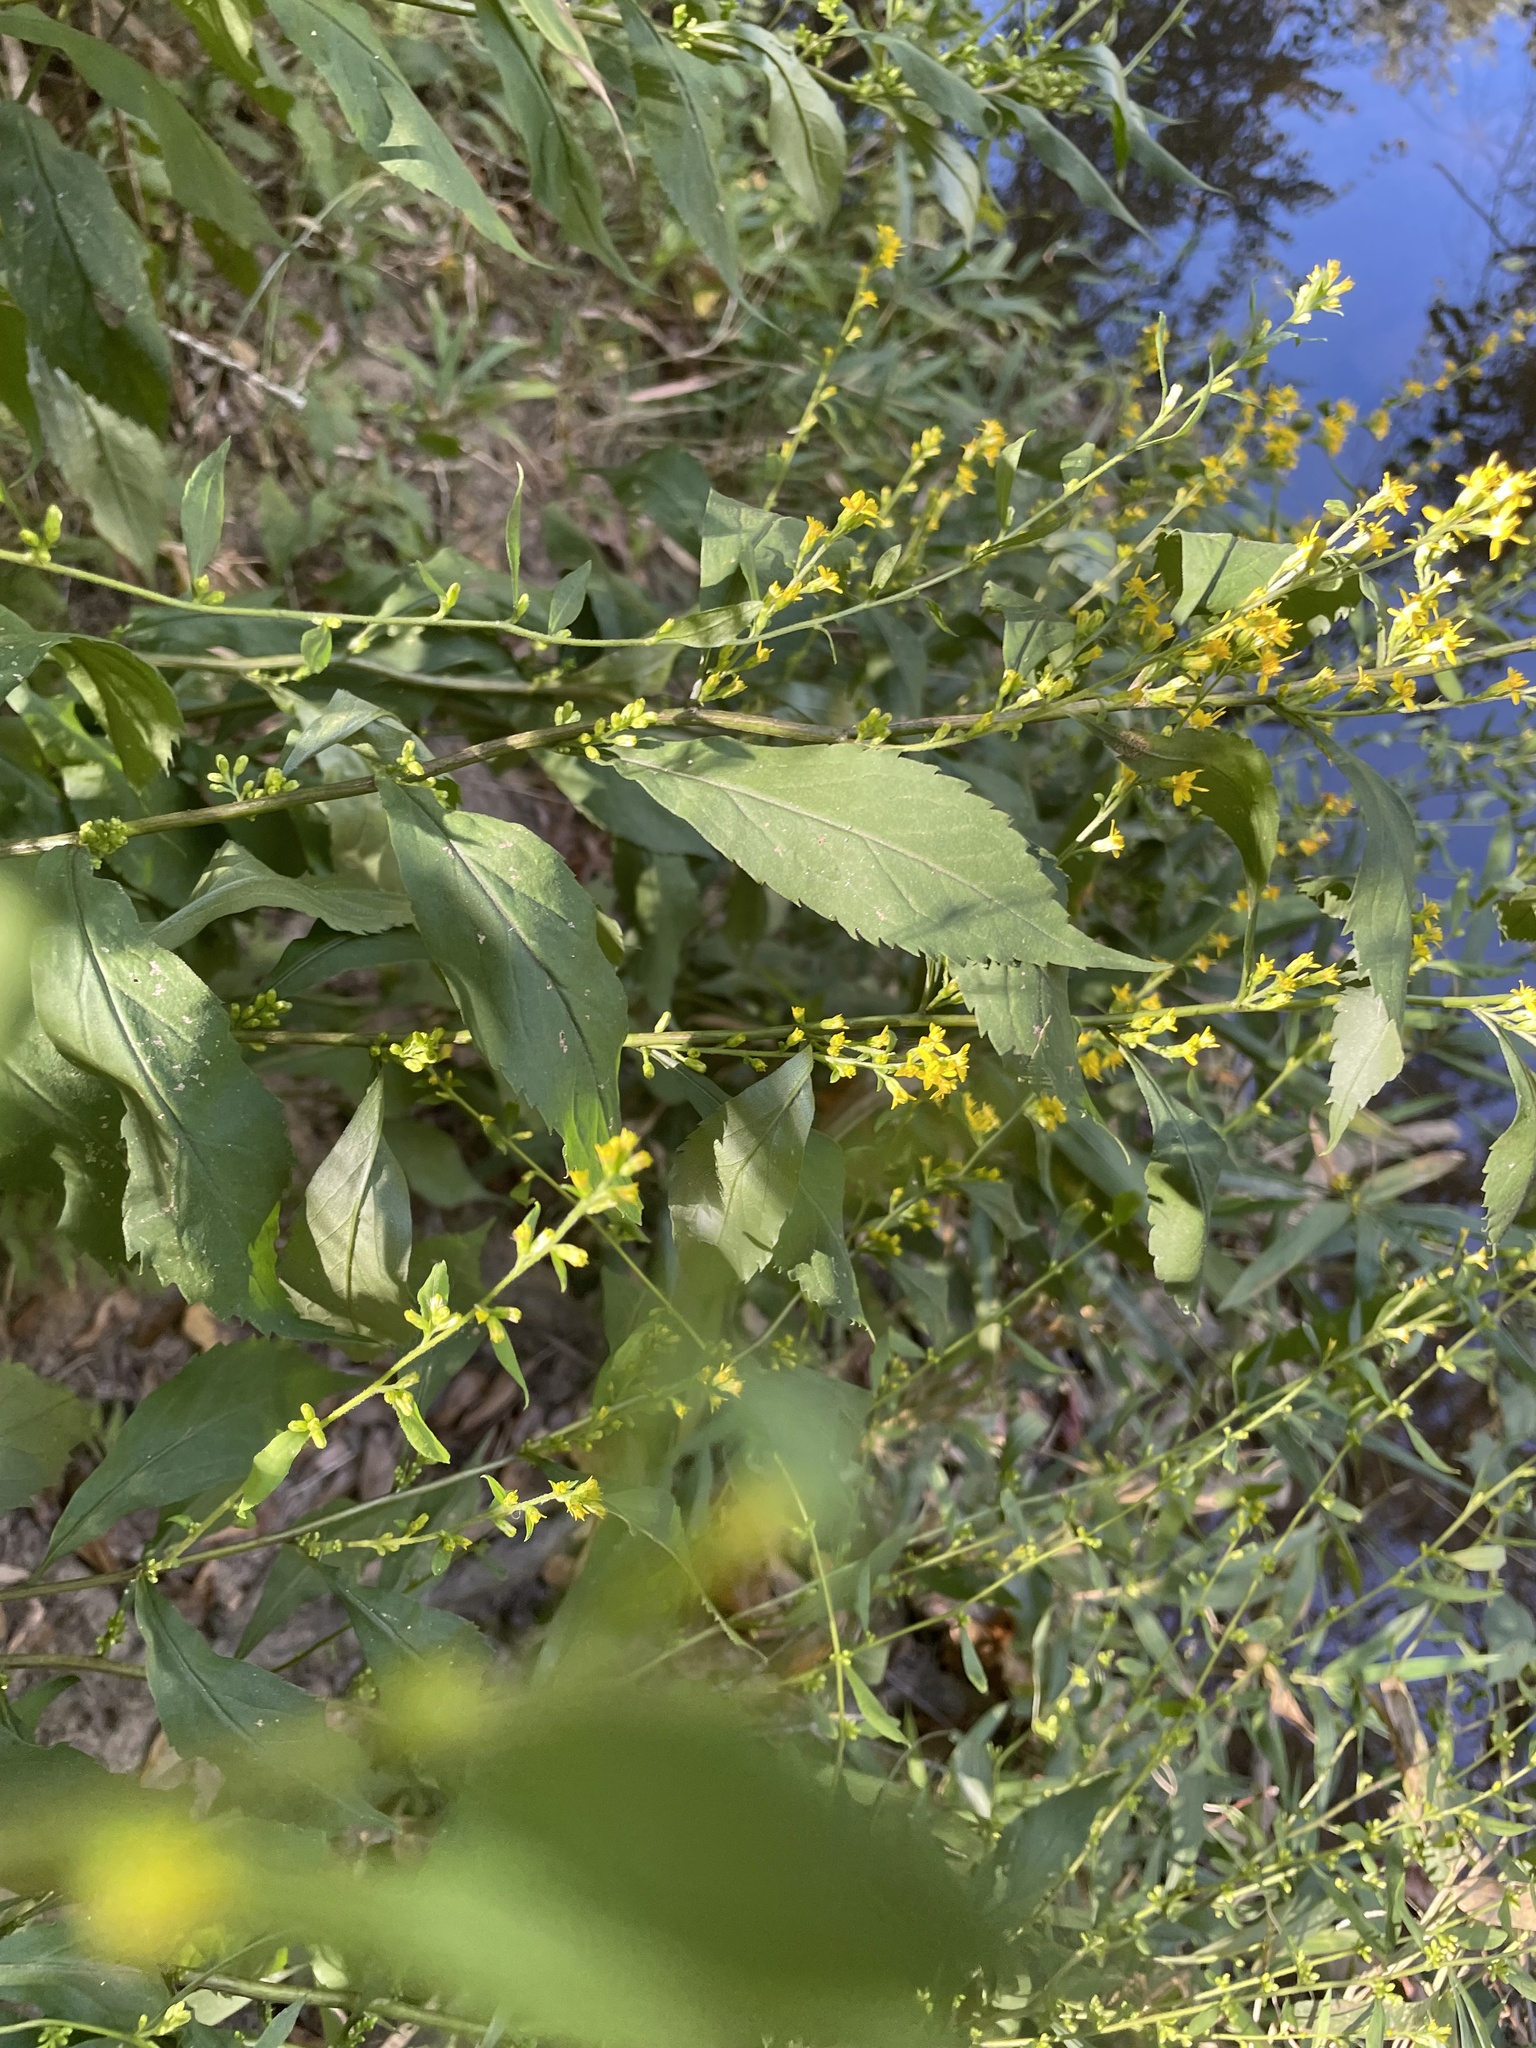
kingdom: Plantae
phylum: Tracheophyta
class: Magnoliopsida
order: Asterales
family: Asteraceae
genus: Solidago
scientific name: Solidago curtisii
